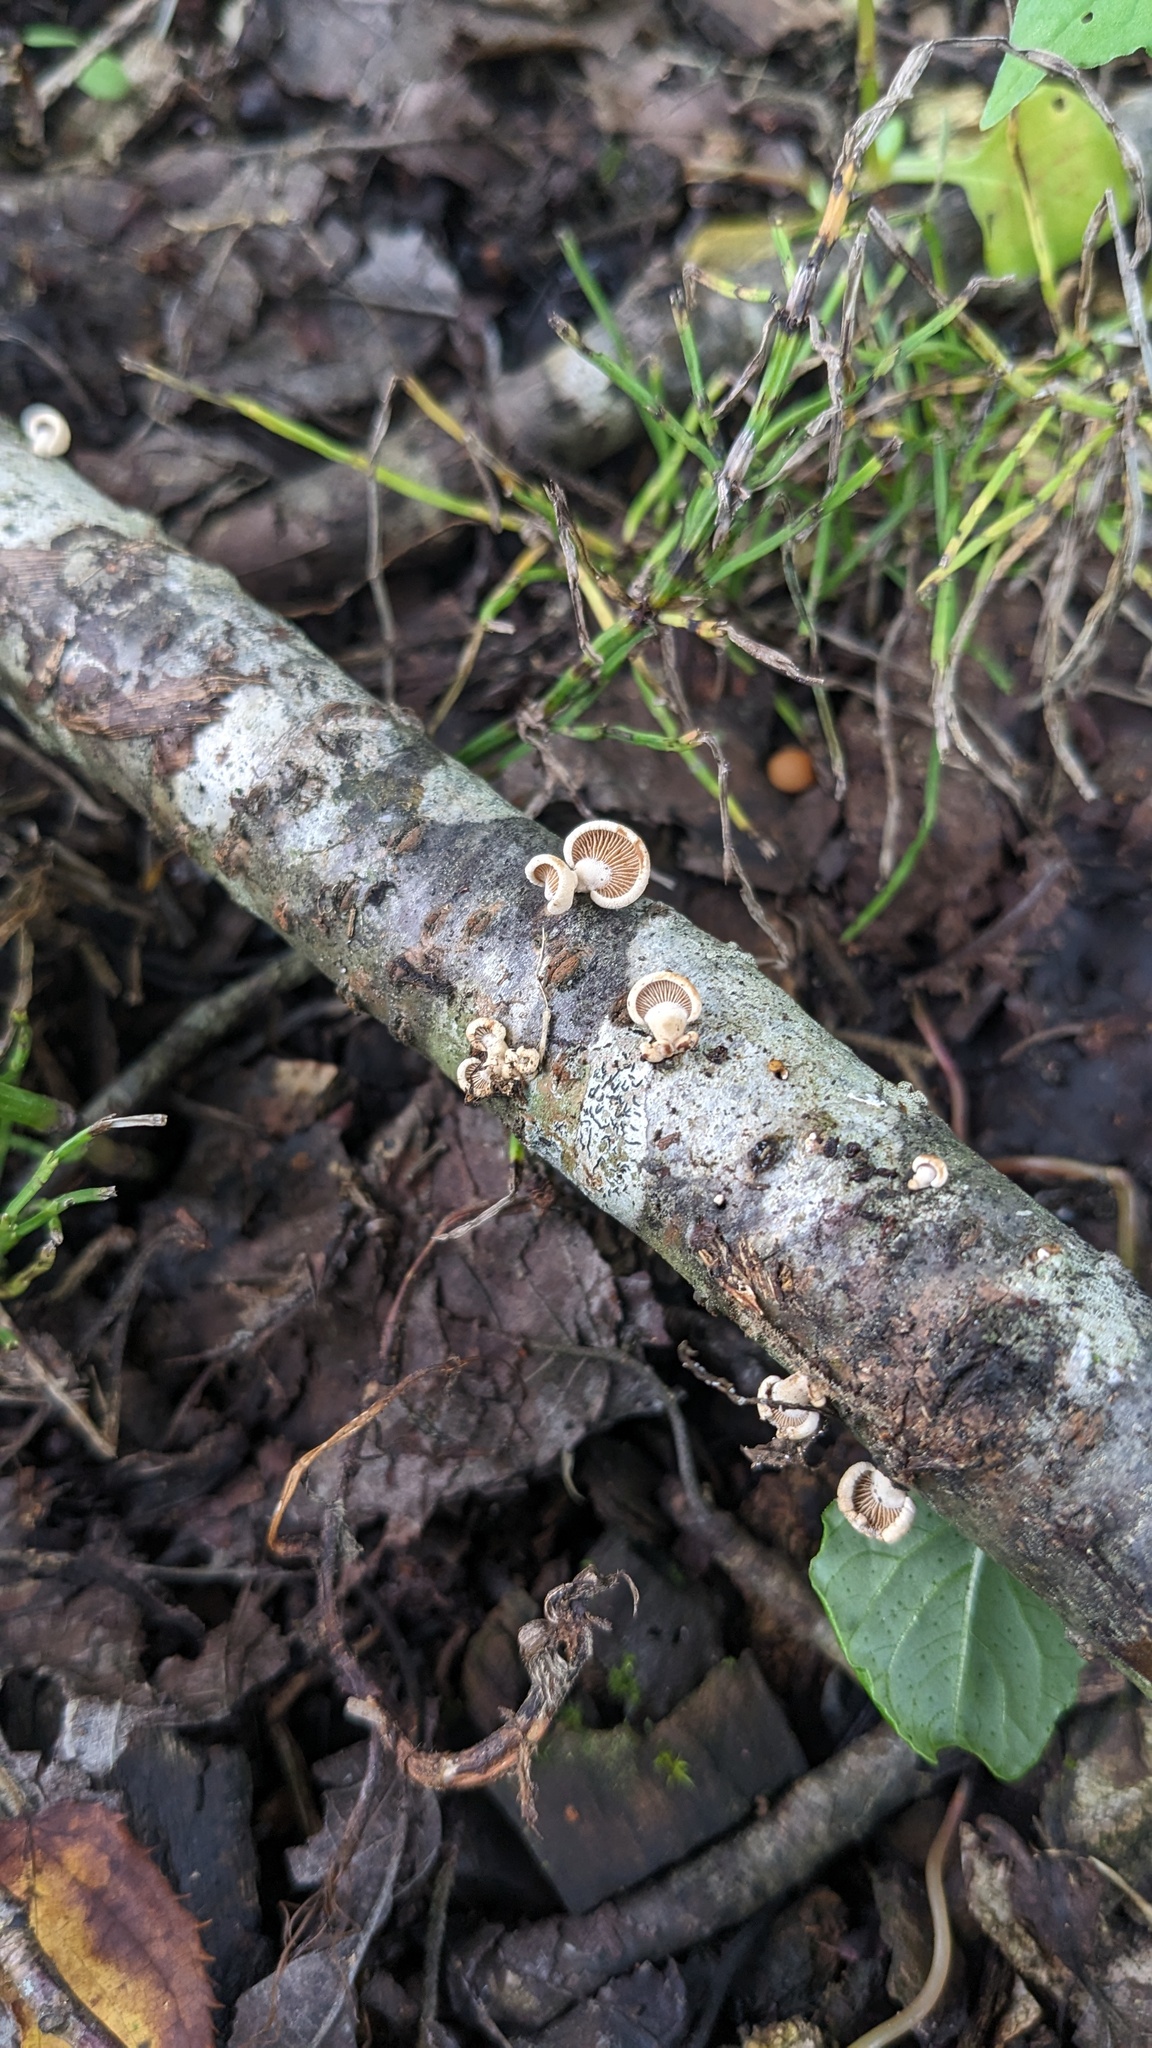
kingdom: Fungi
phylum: Basidiomycota
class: Agaricomycetes
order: Agaricales
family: Mycenaceae
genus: Panellus
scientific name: Panellus stipticus
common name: Bitter oysterling
